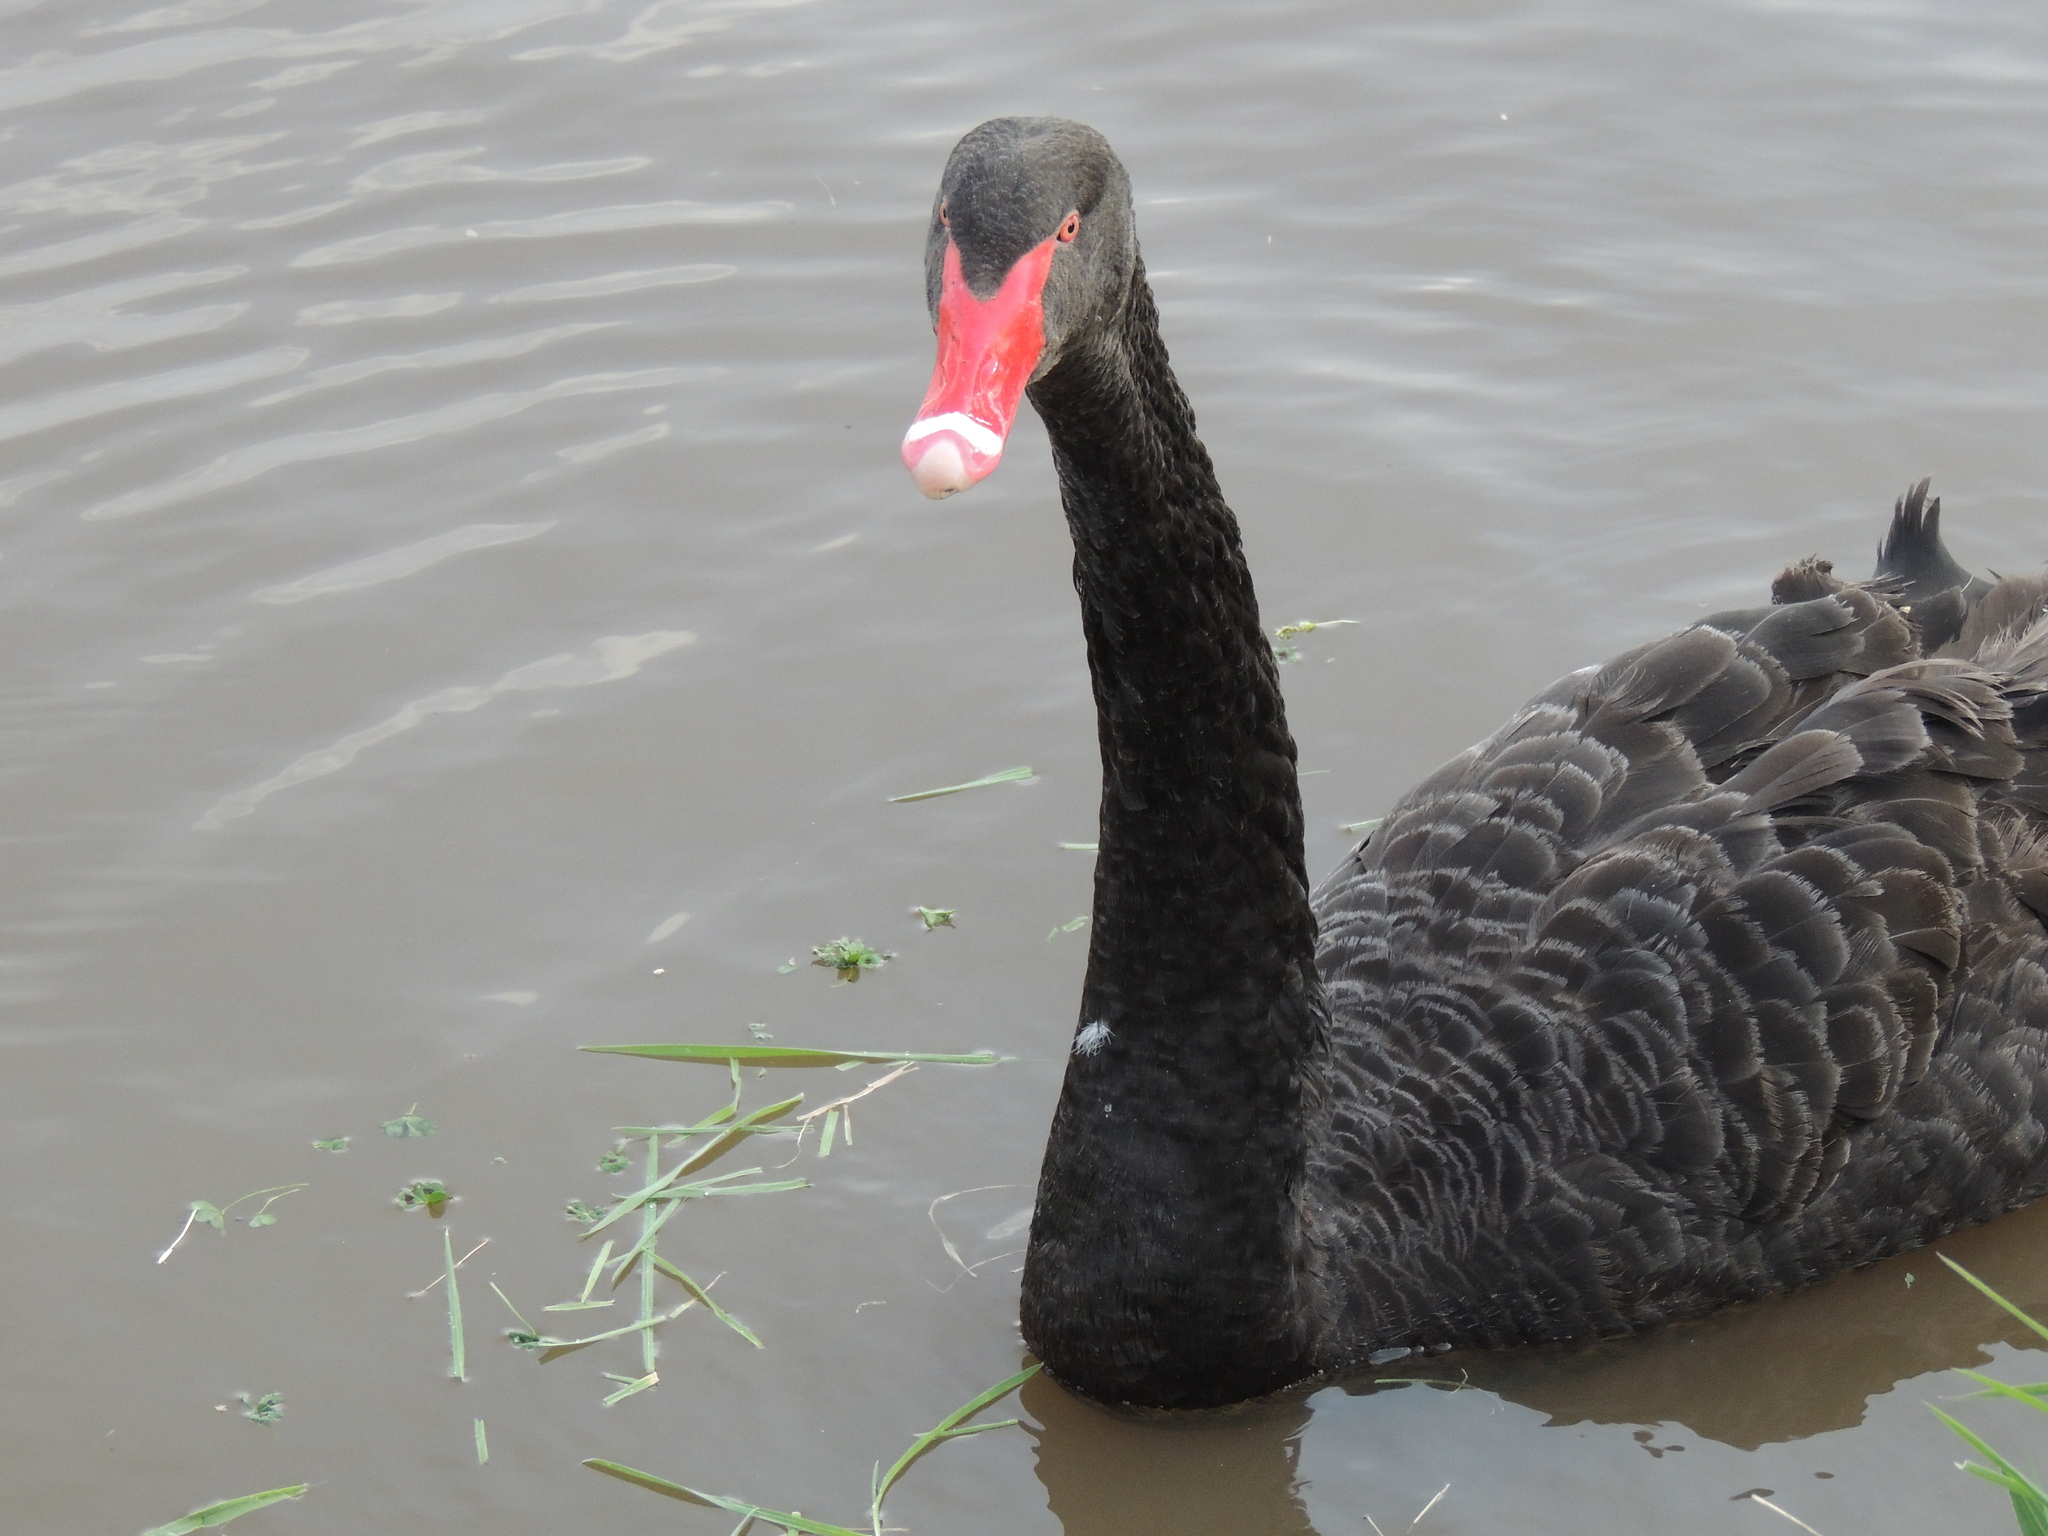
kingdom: Animalia
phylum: Chordata
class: Aves
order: Anseriformes
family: Anatidae
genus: Cygnus
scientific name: Cygnus atratus
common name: Black swan
